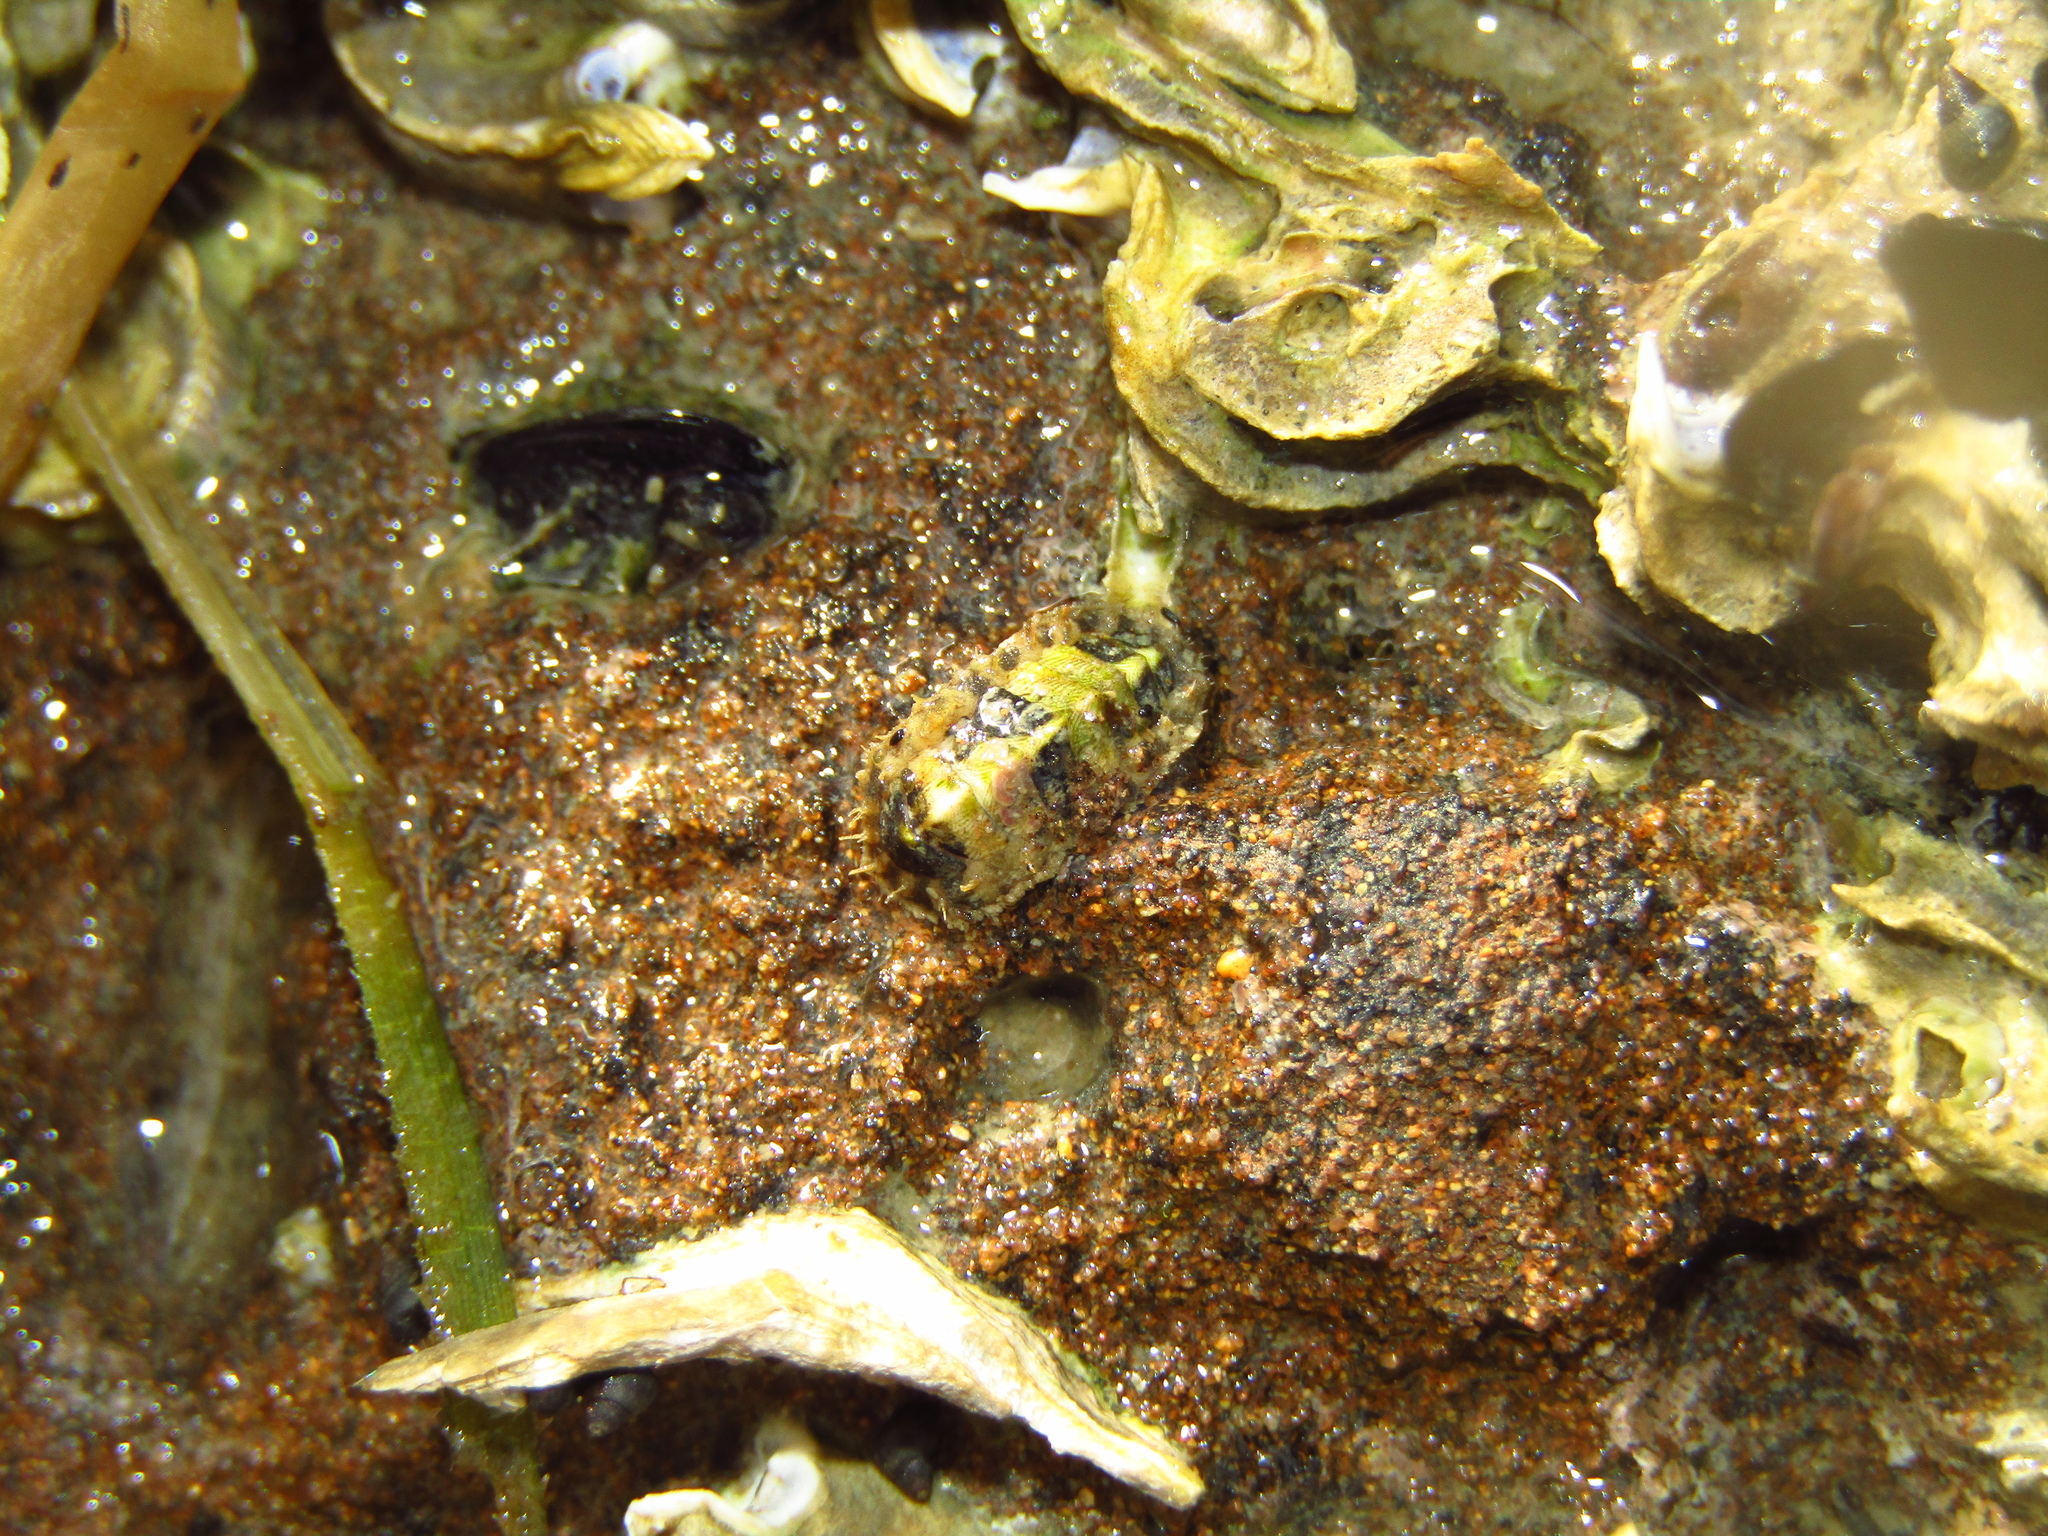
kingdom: Animalia
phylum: Mollusca
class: Polyplacophora
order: Chitonida
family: Mopaliidae
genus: Plaxiphora
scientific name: Plaxiphora caelata
